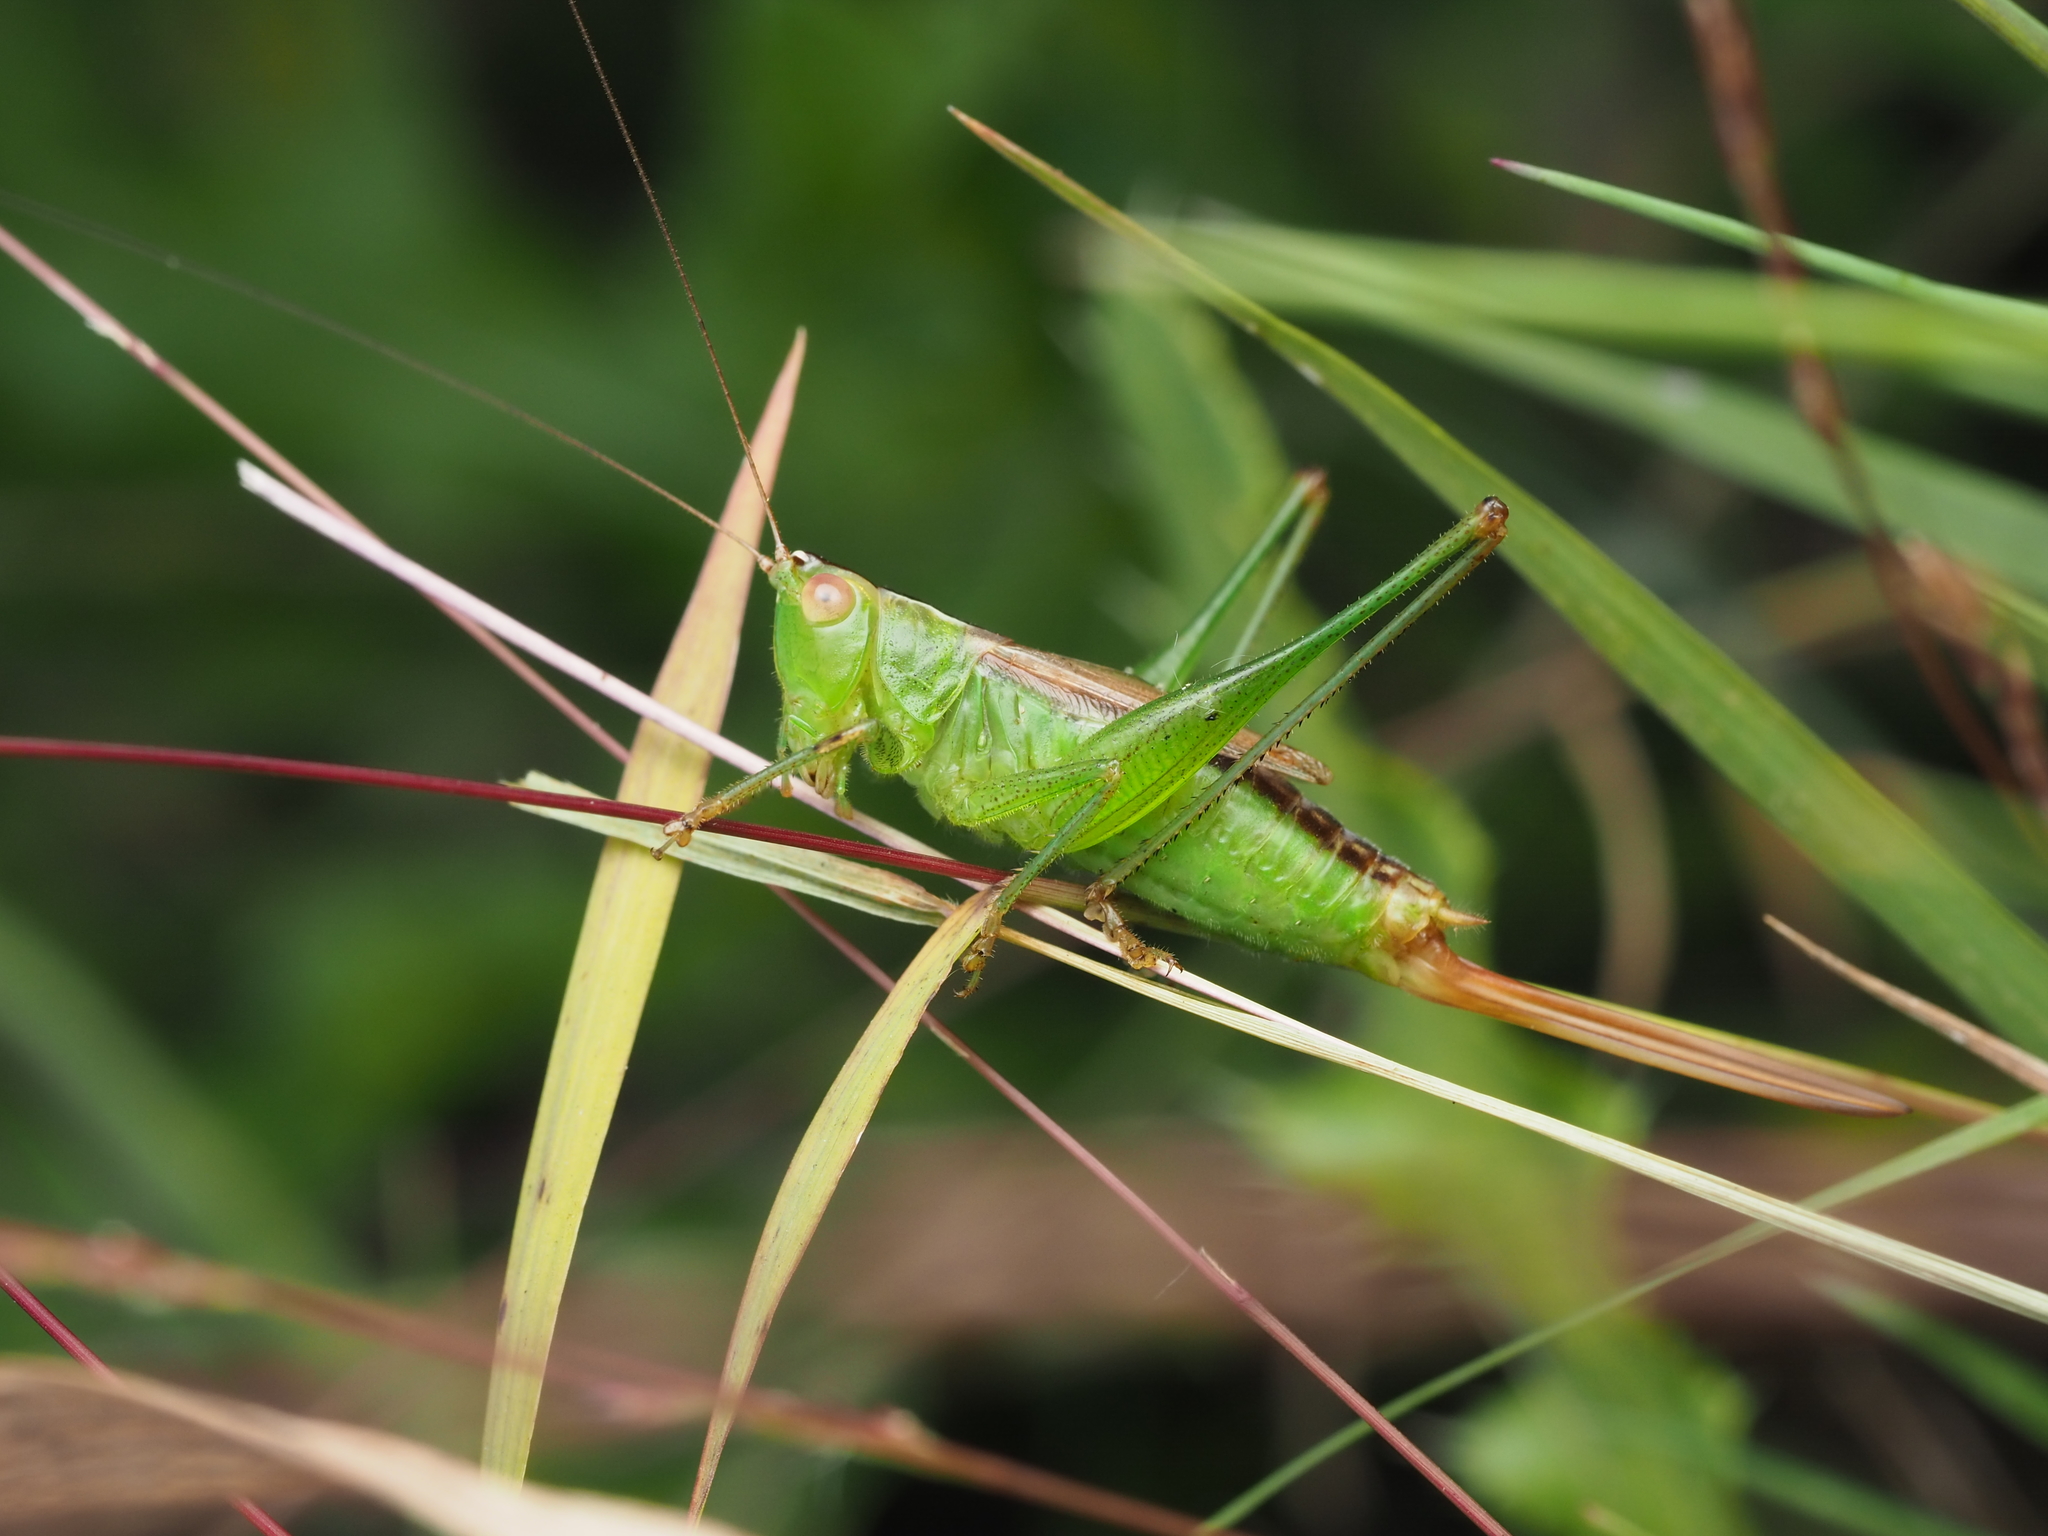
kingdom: Animalia
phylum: Arthropoda
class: Insecta
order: Orthoptera
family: Tettigoniidae
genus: Conocephalus
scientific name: Conocephalus brevipennis
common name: Short-winged meadow katydid
